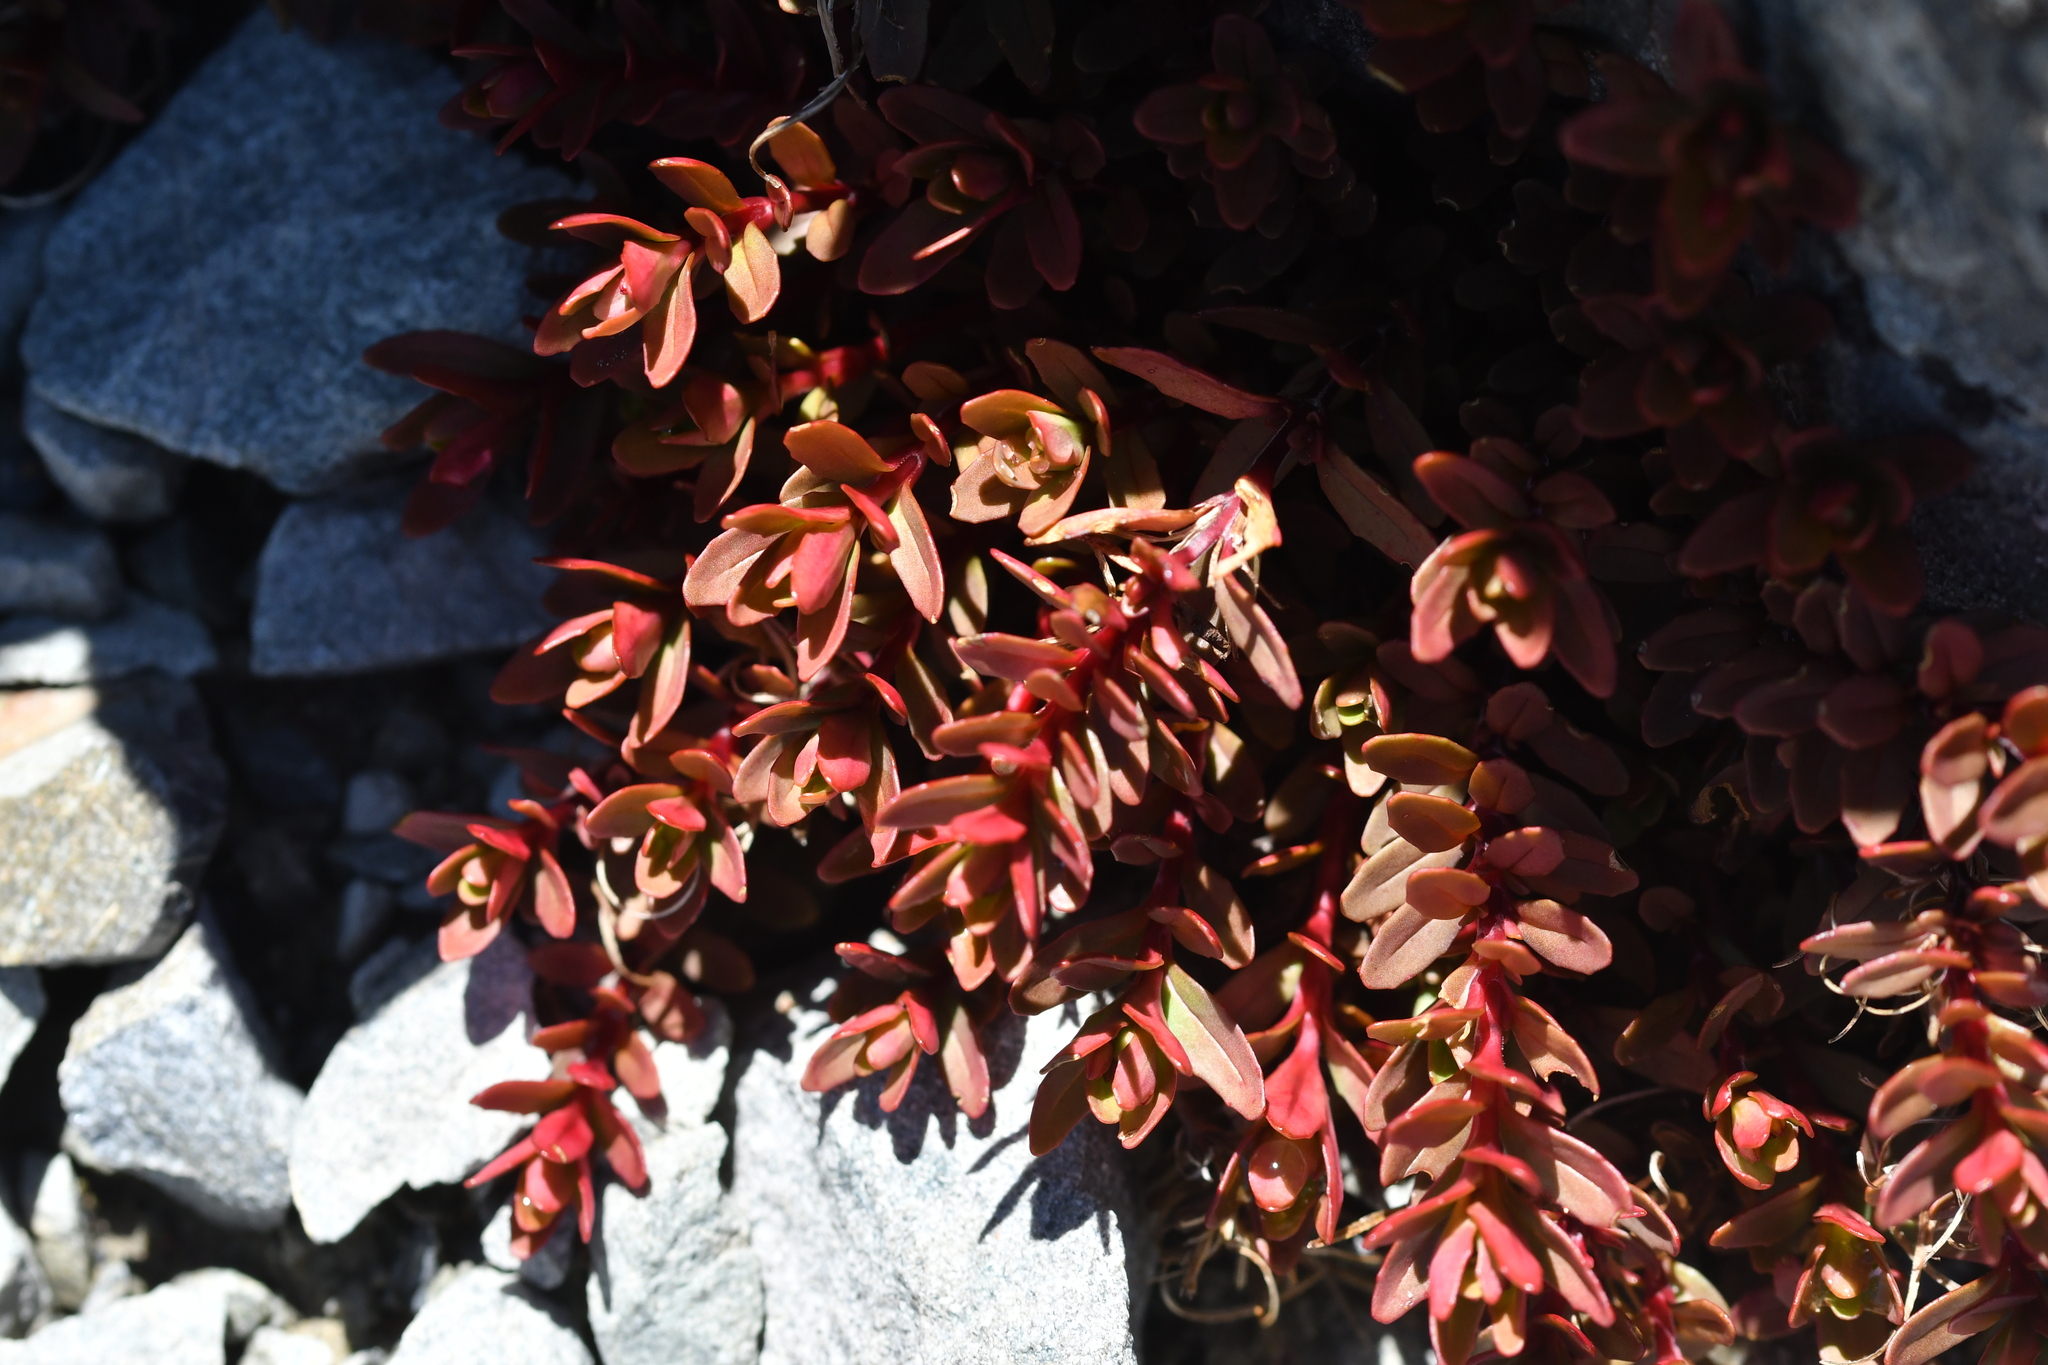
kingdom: Plantae
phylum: Tracheophyta
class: Magnoliopsida
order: Myrtales
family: Onagraceae
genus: Epilobium
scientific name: Epilobium porphyrium
